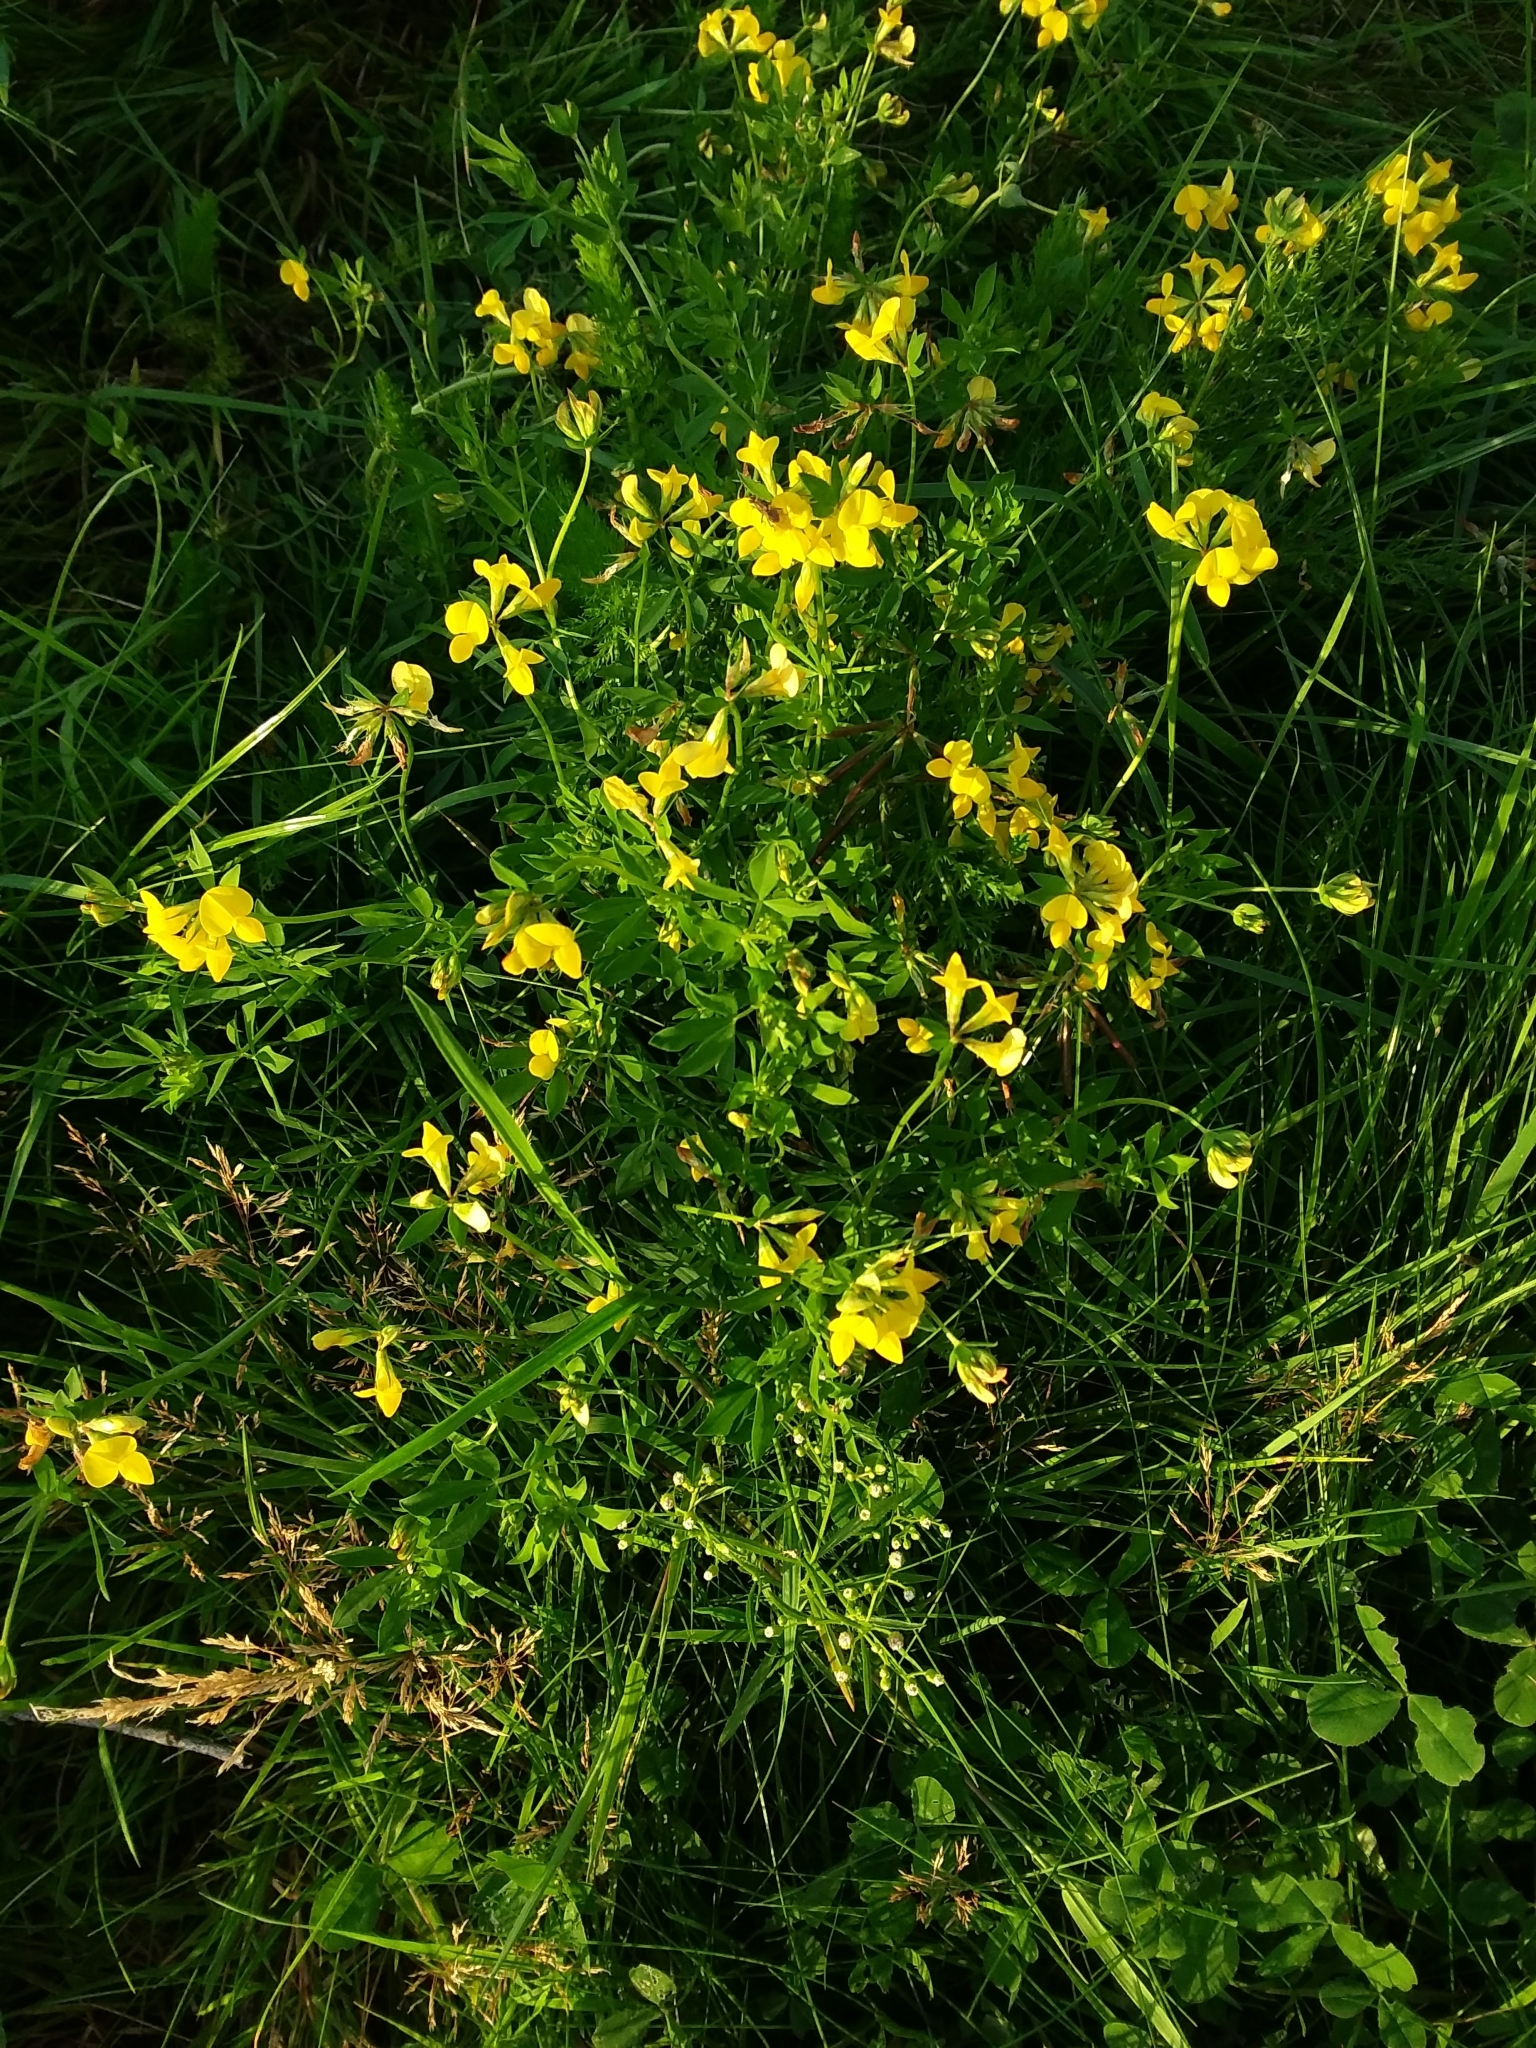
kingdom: Plantae
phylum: Tracheophyta
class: Magnoliopsida
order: Fabales
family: Fabaceae
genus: Lotus
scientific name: Lotus corniculatus
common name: Common bird's-foot-trefoil
